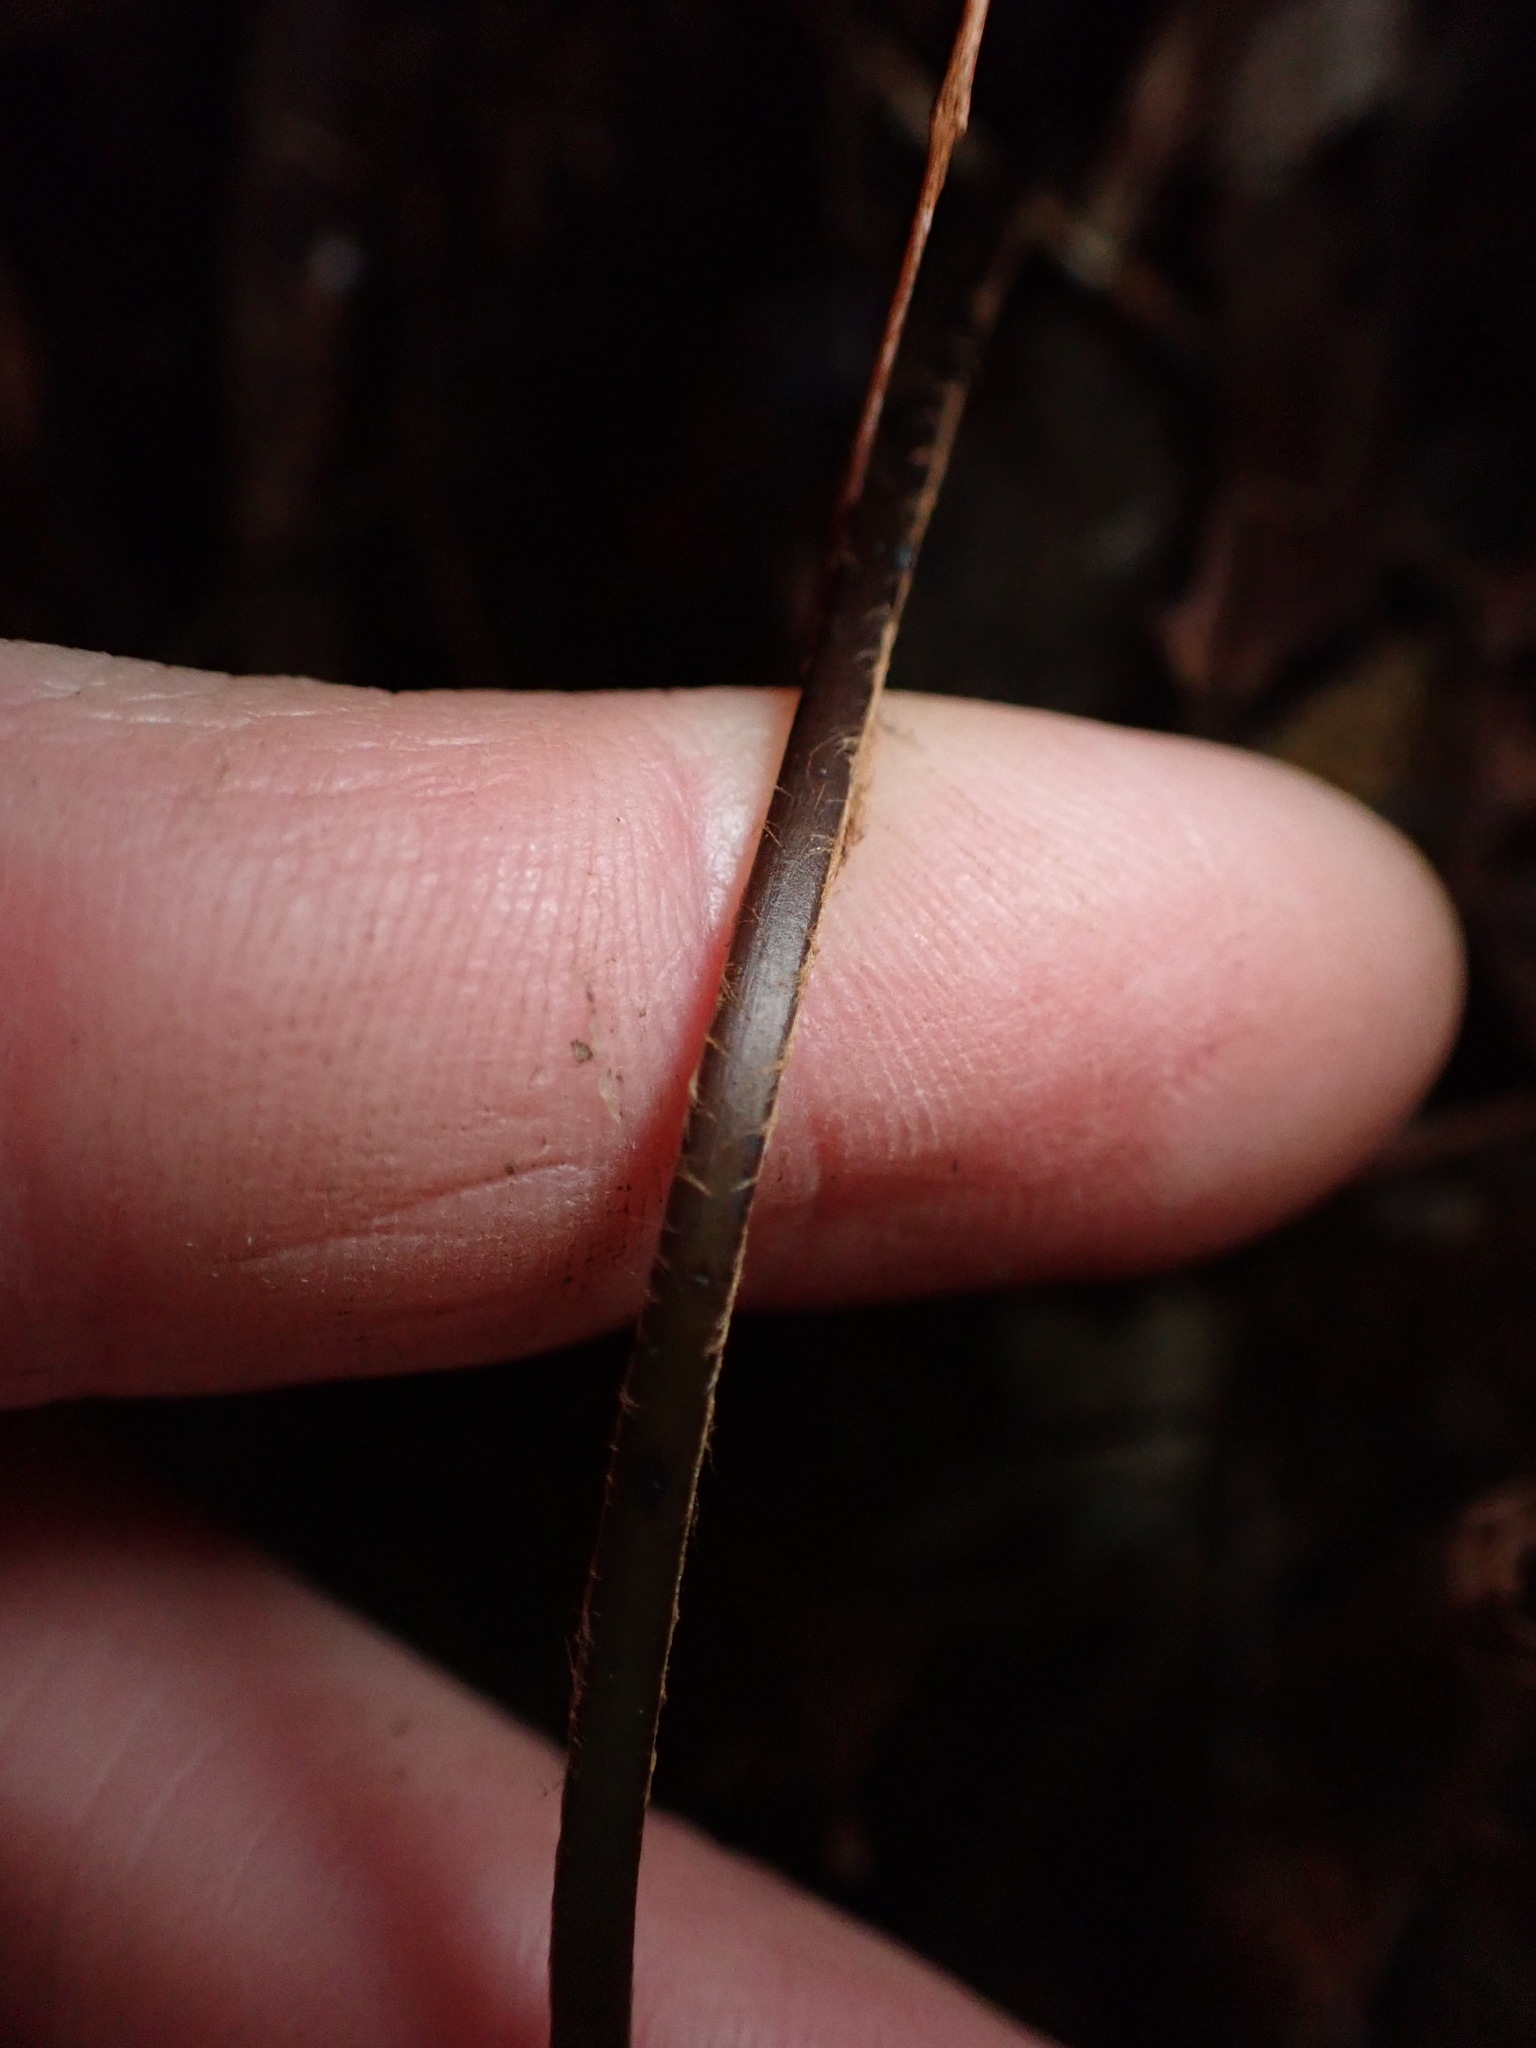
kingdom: Plantae
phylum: Tracheophyta
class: Polypodiopsida
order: Osmundales
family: Osmundaceae
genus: Leptopteris
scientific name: Leptopteris hymenophylloides
